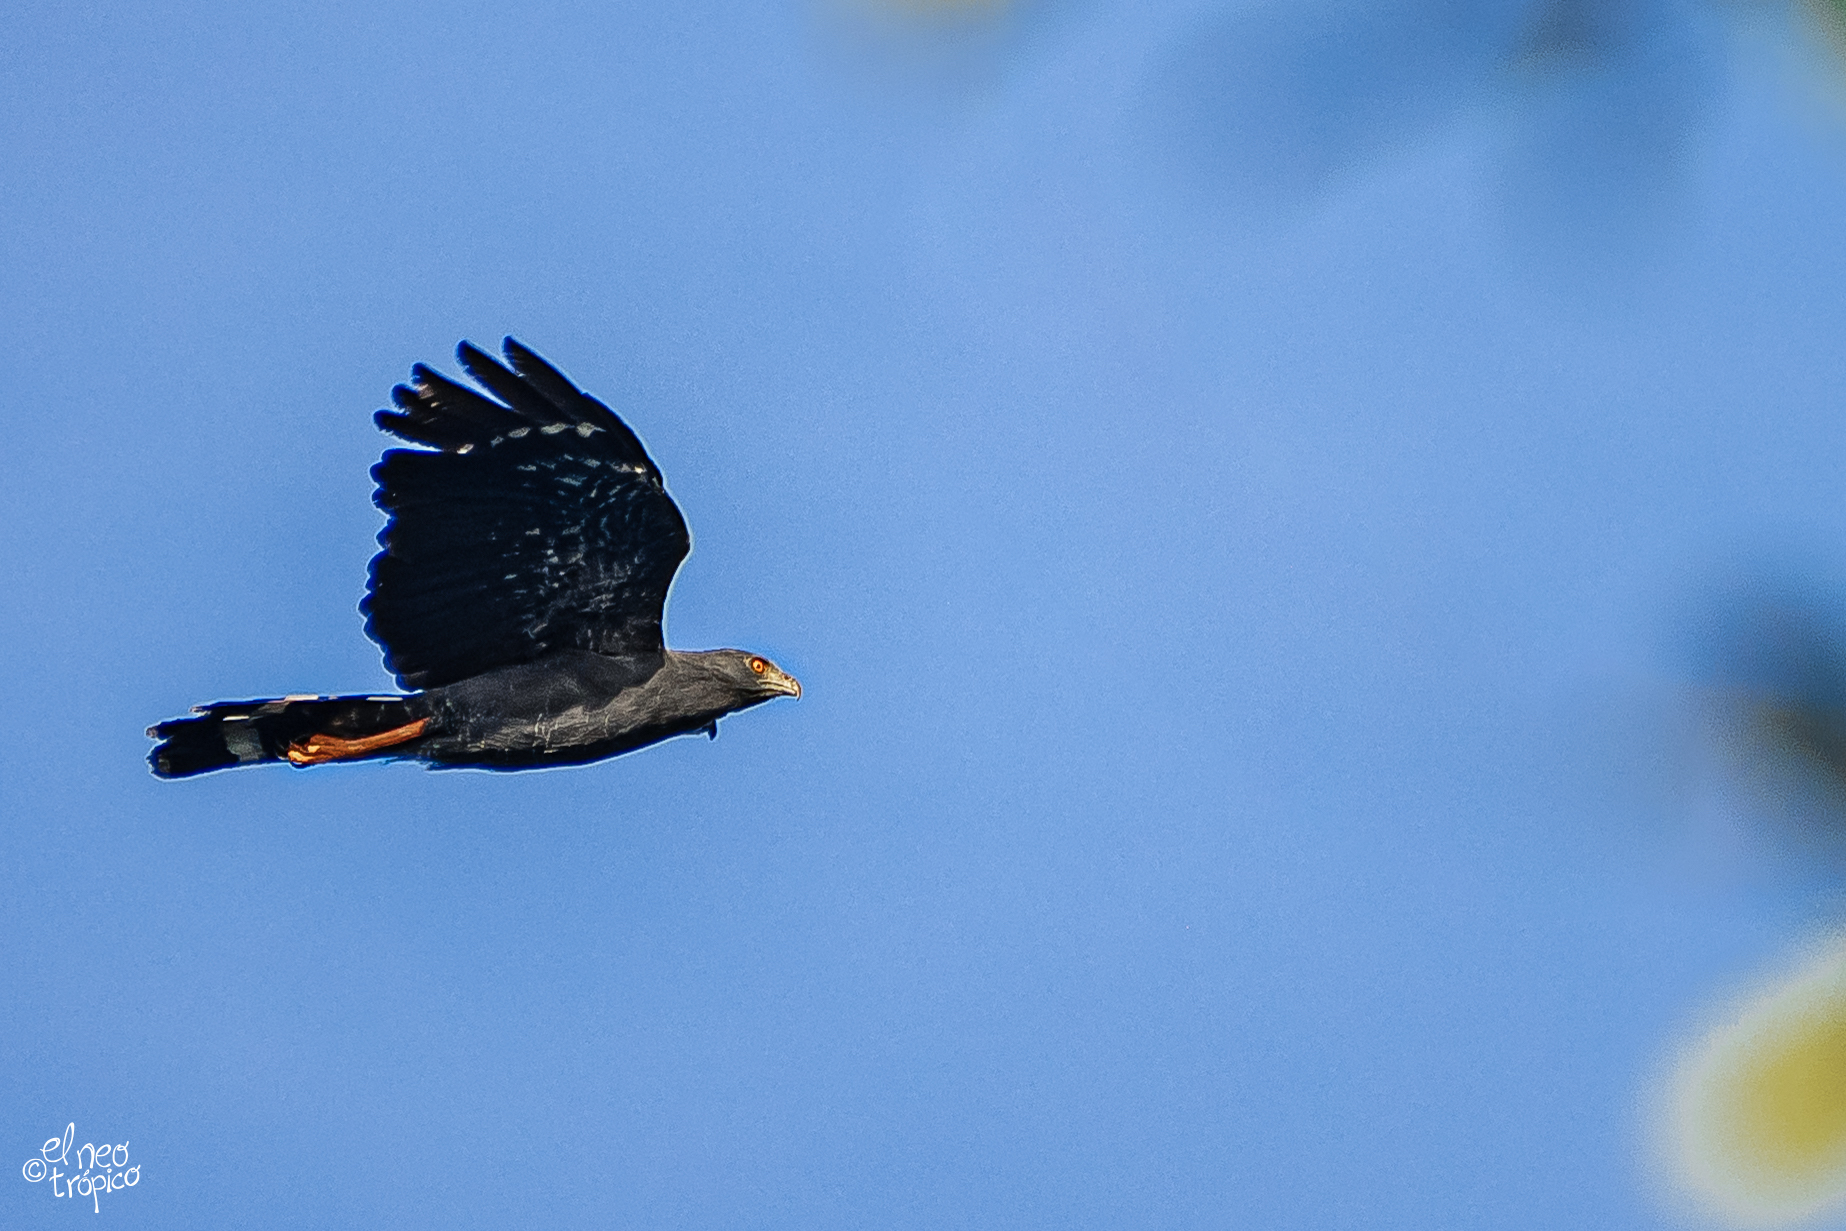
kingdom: Animalia
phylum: Chordata
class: Aves
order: Accipitriformes
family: Accipitridae
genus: Geranospiza
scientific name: Geranospiza caerulescens
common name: Crane hawk
